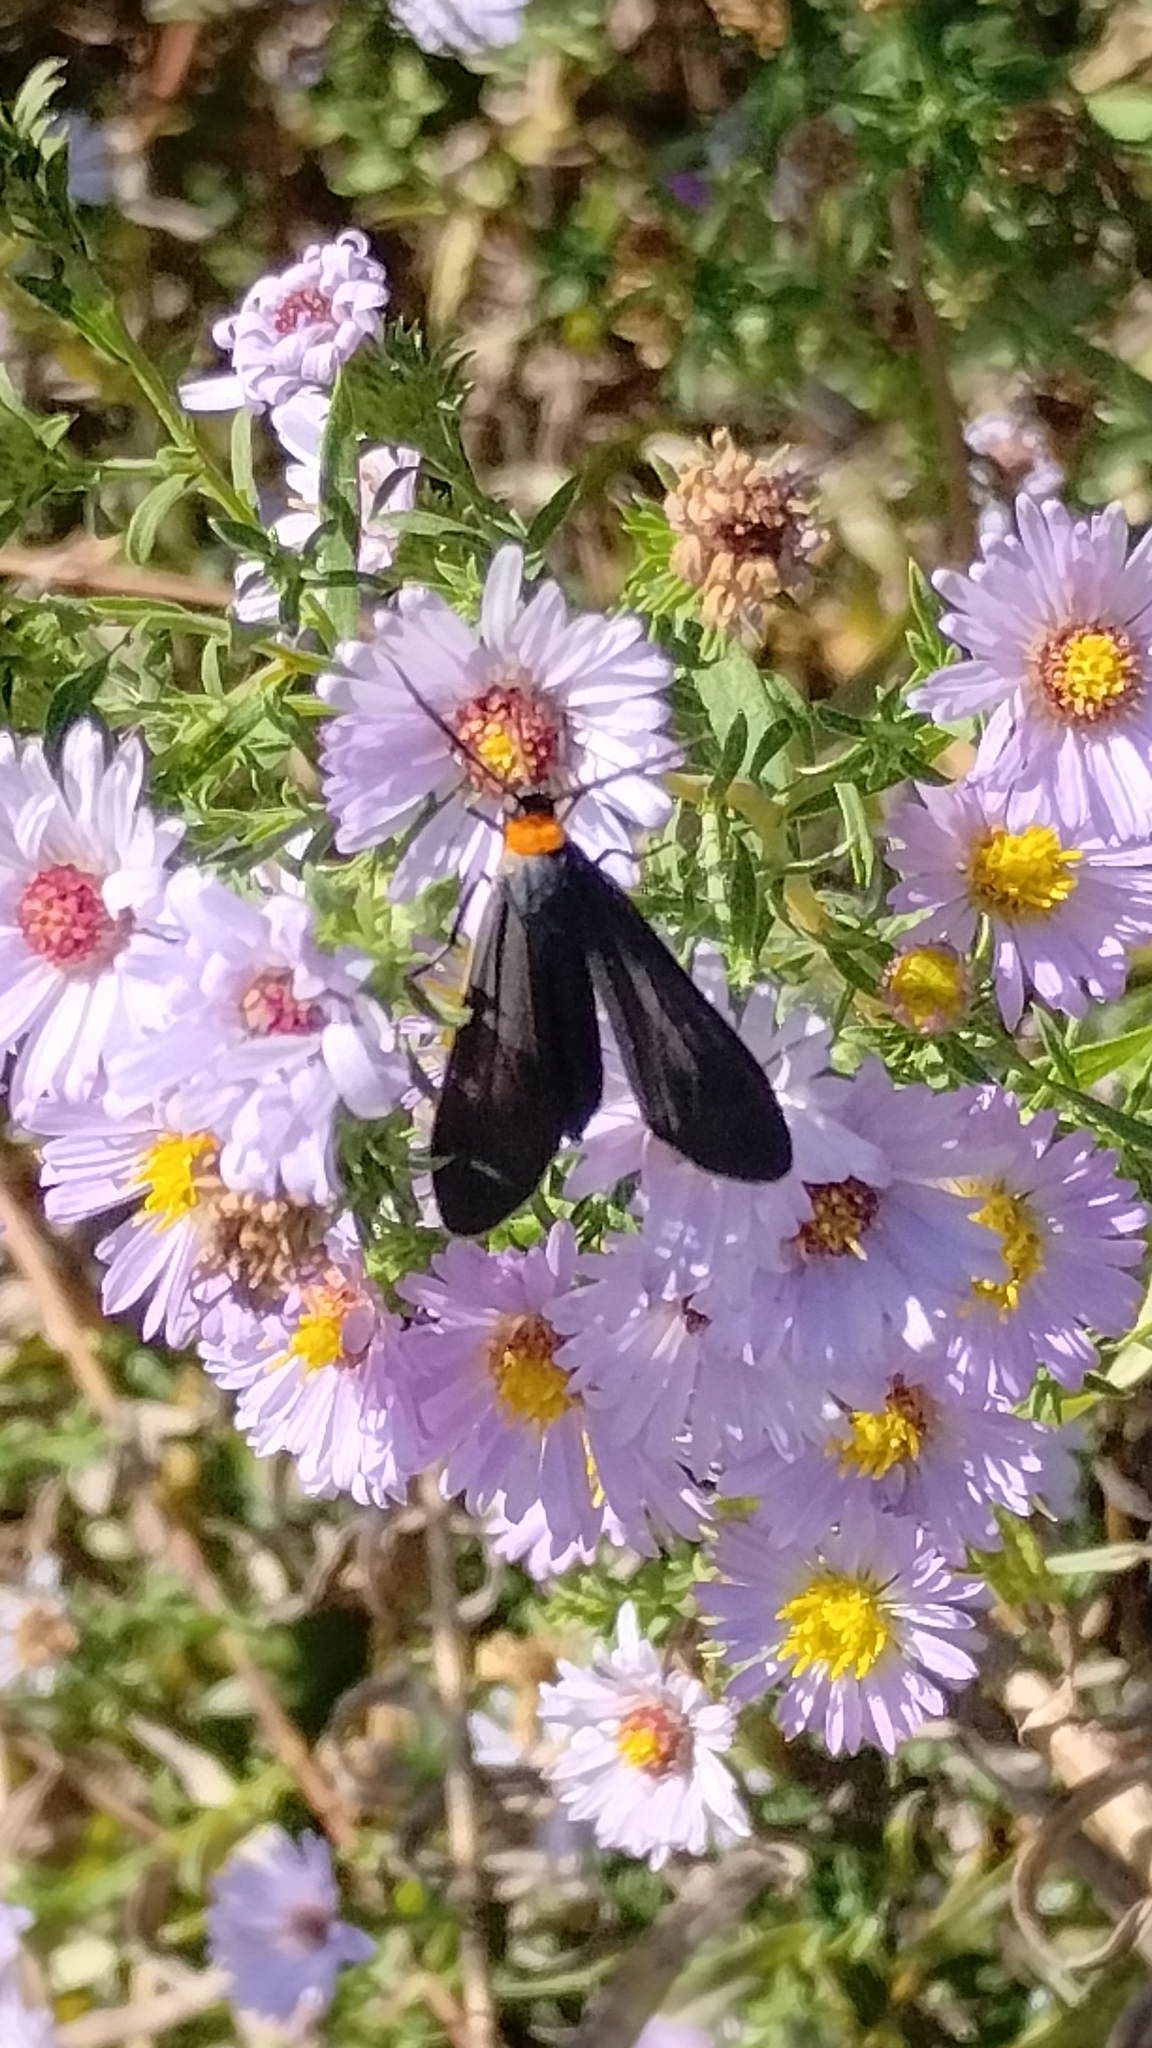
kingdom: Animalia
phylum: Arthropoda
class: Insecta
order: Lepidoptera
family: Erebidae
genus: Cisseps
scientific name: Cisseps fulvicollis
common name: Yellow-collared scape moth
